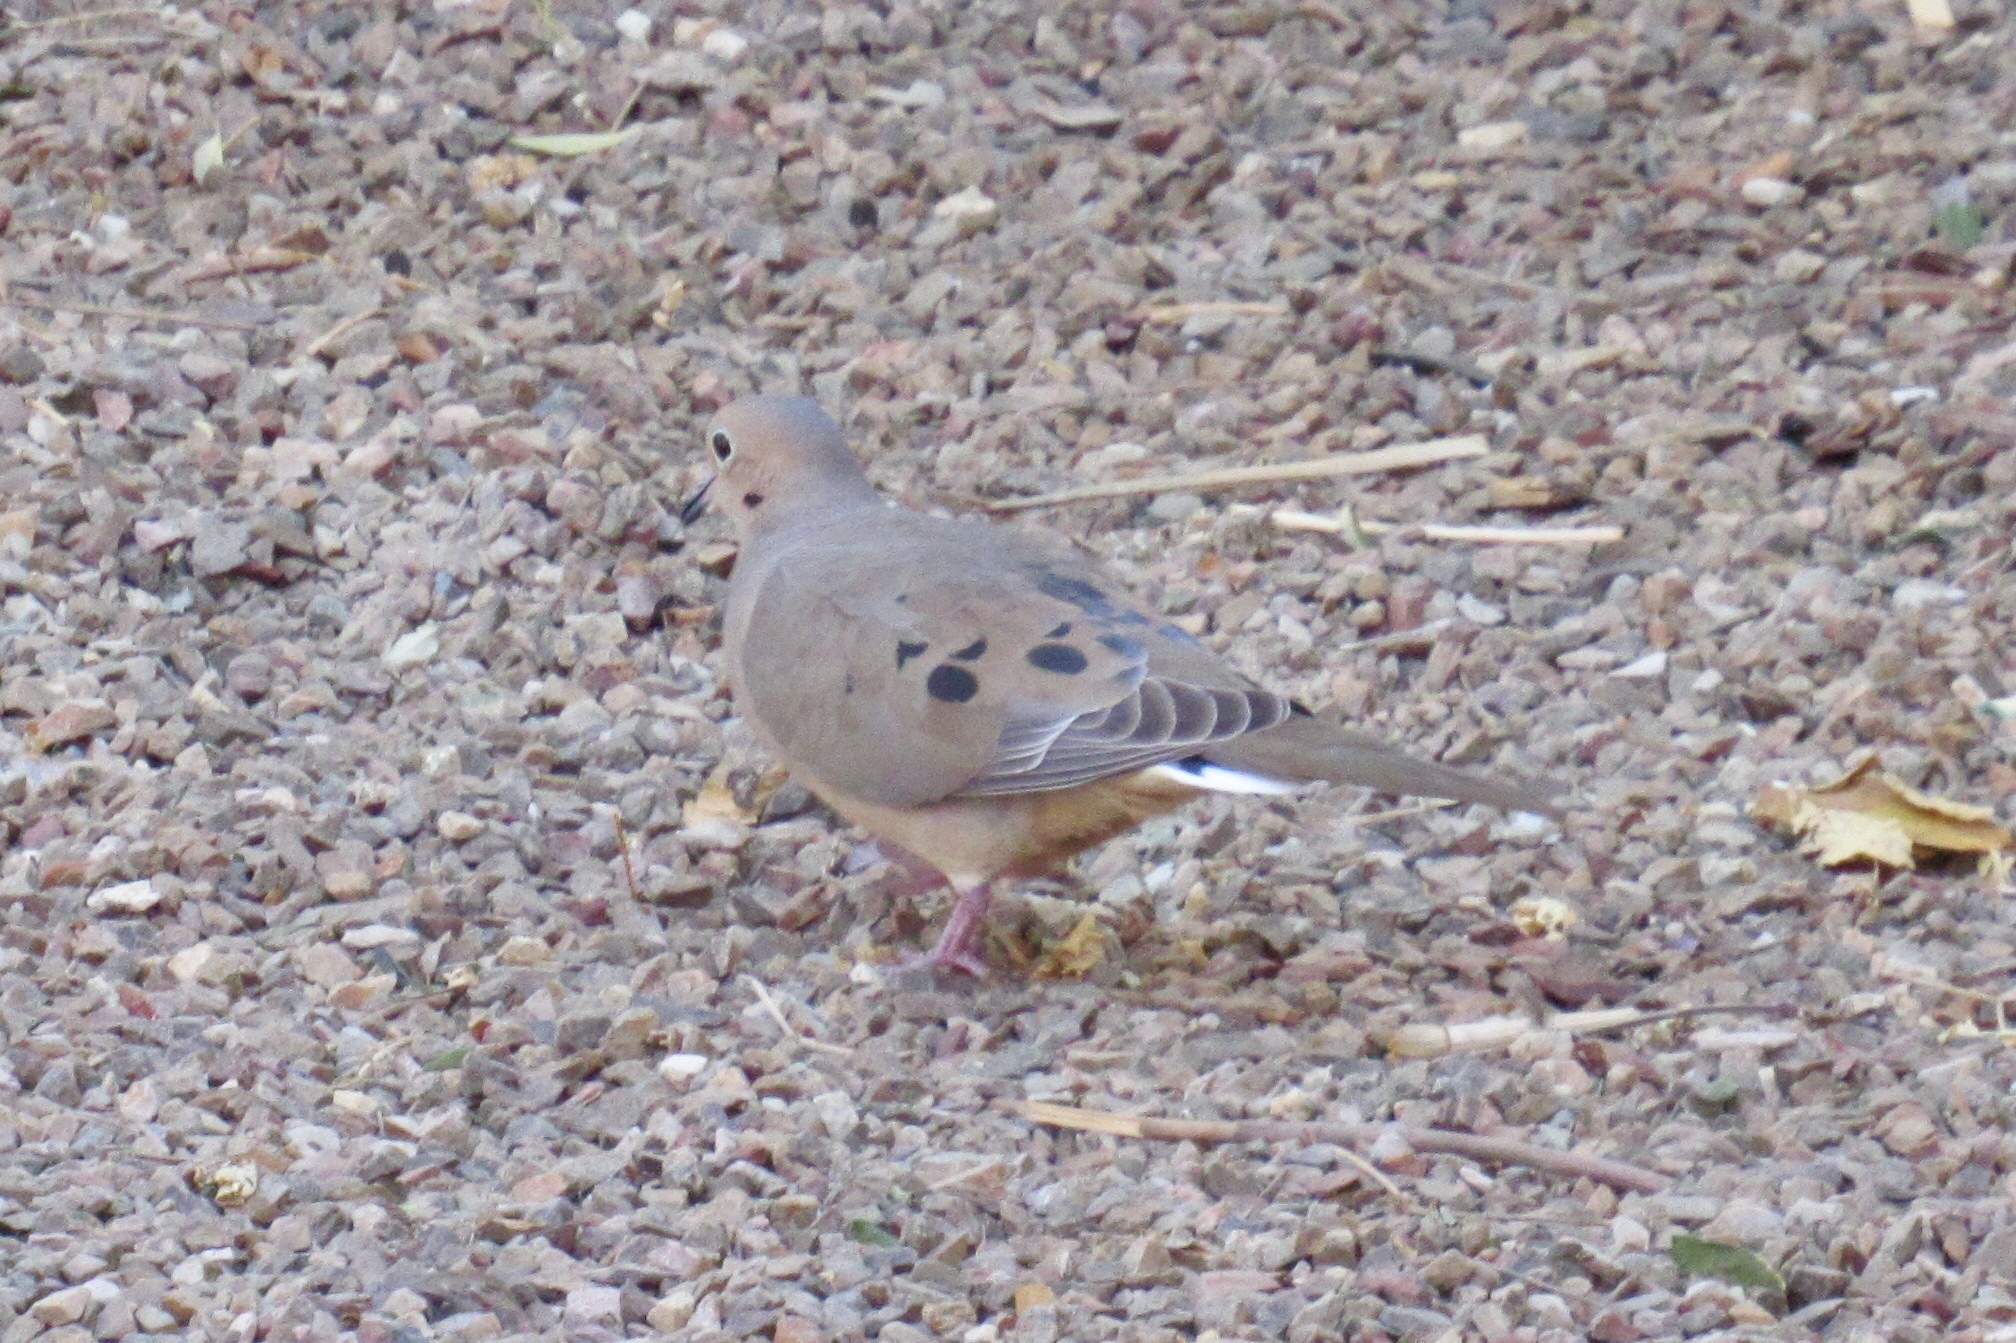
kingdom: Animalia
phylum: Chordata
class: Aves
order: Columbiformes
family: Columbidae
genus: Zenaida
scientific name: Zenaida macroura
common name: Mourning dove
